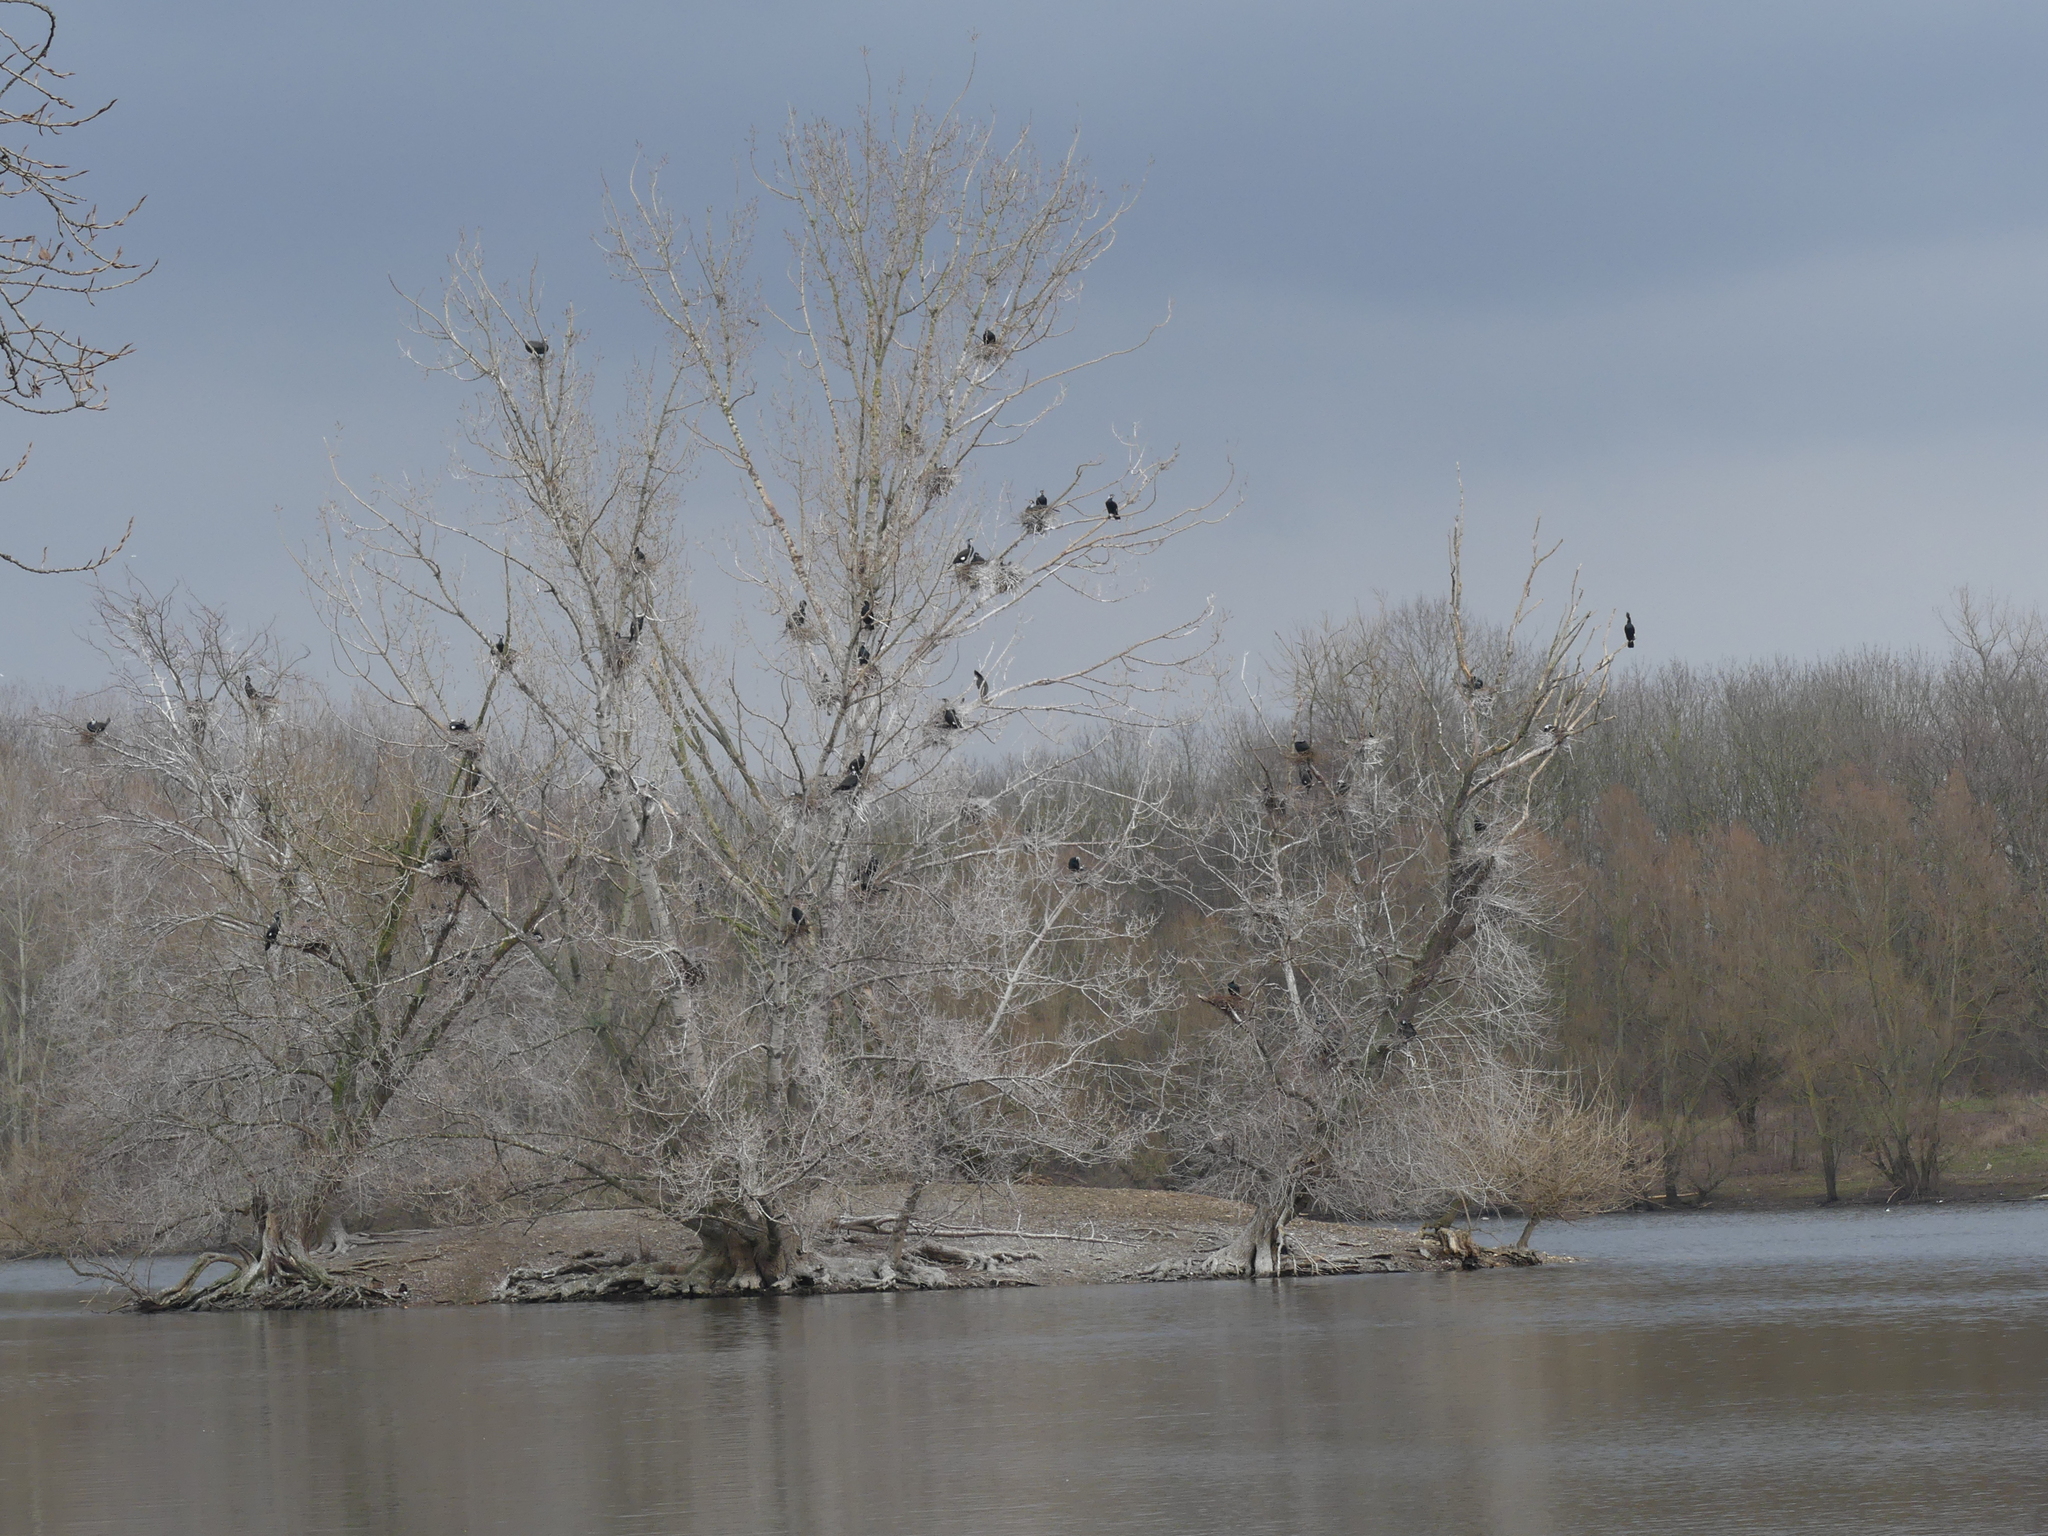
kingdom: Animalia
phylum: Chordata
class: Aves
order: Suliformes
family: Phalacrocoracidae
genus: Phalacrocorax
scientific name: Phalacrocorax carbo
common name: Great cormorant
